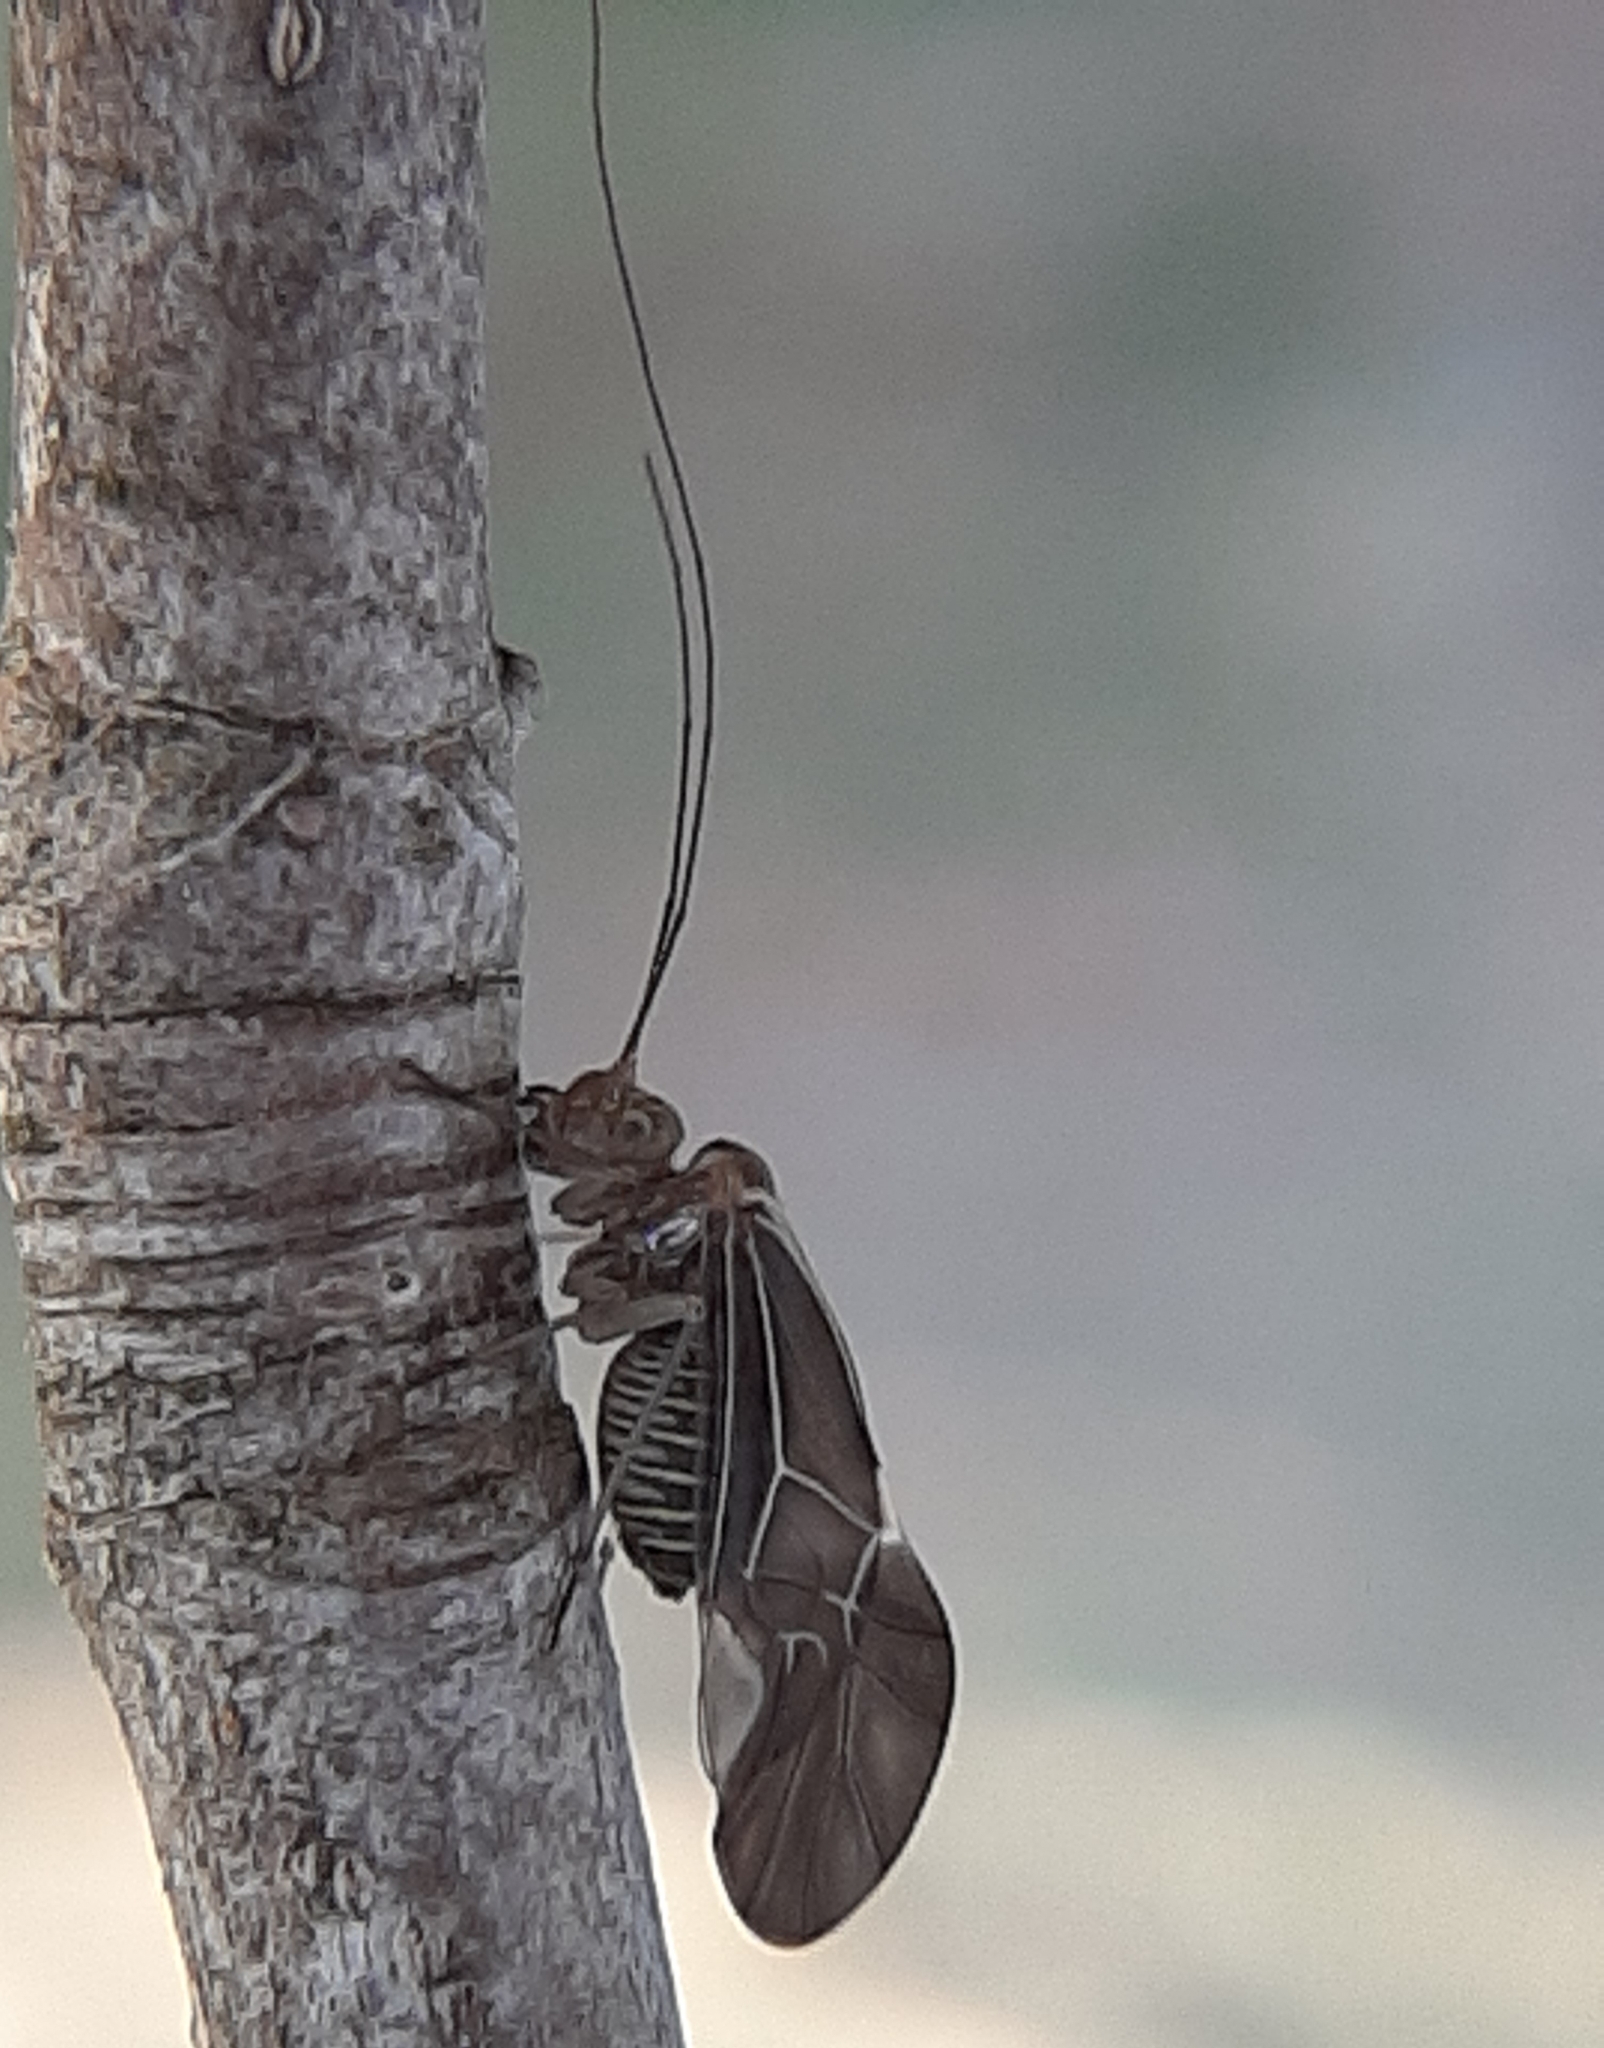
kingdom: Animalia
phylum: Arthropoda
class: Insecta
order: Psocodea
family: Psocidae
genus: Cerastipsocus
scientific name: Cerastipsocus venosus
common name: Tree cattle
